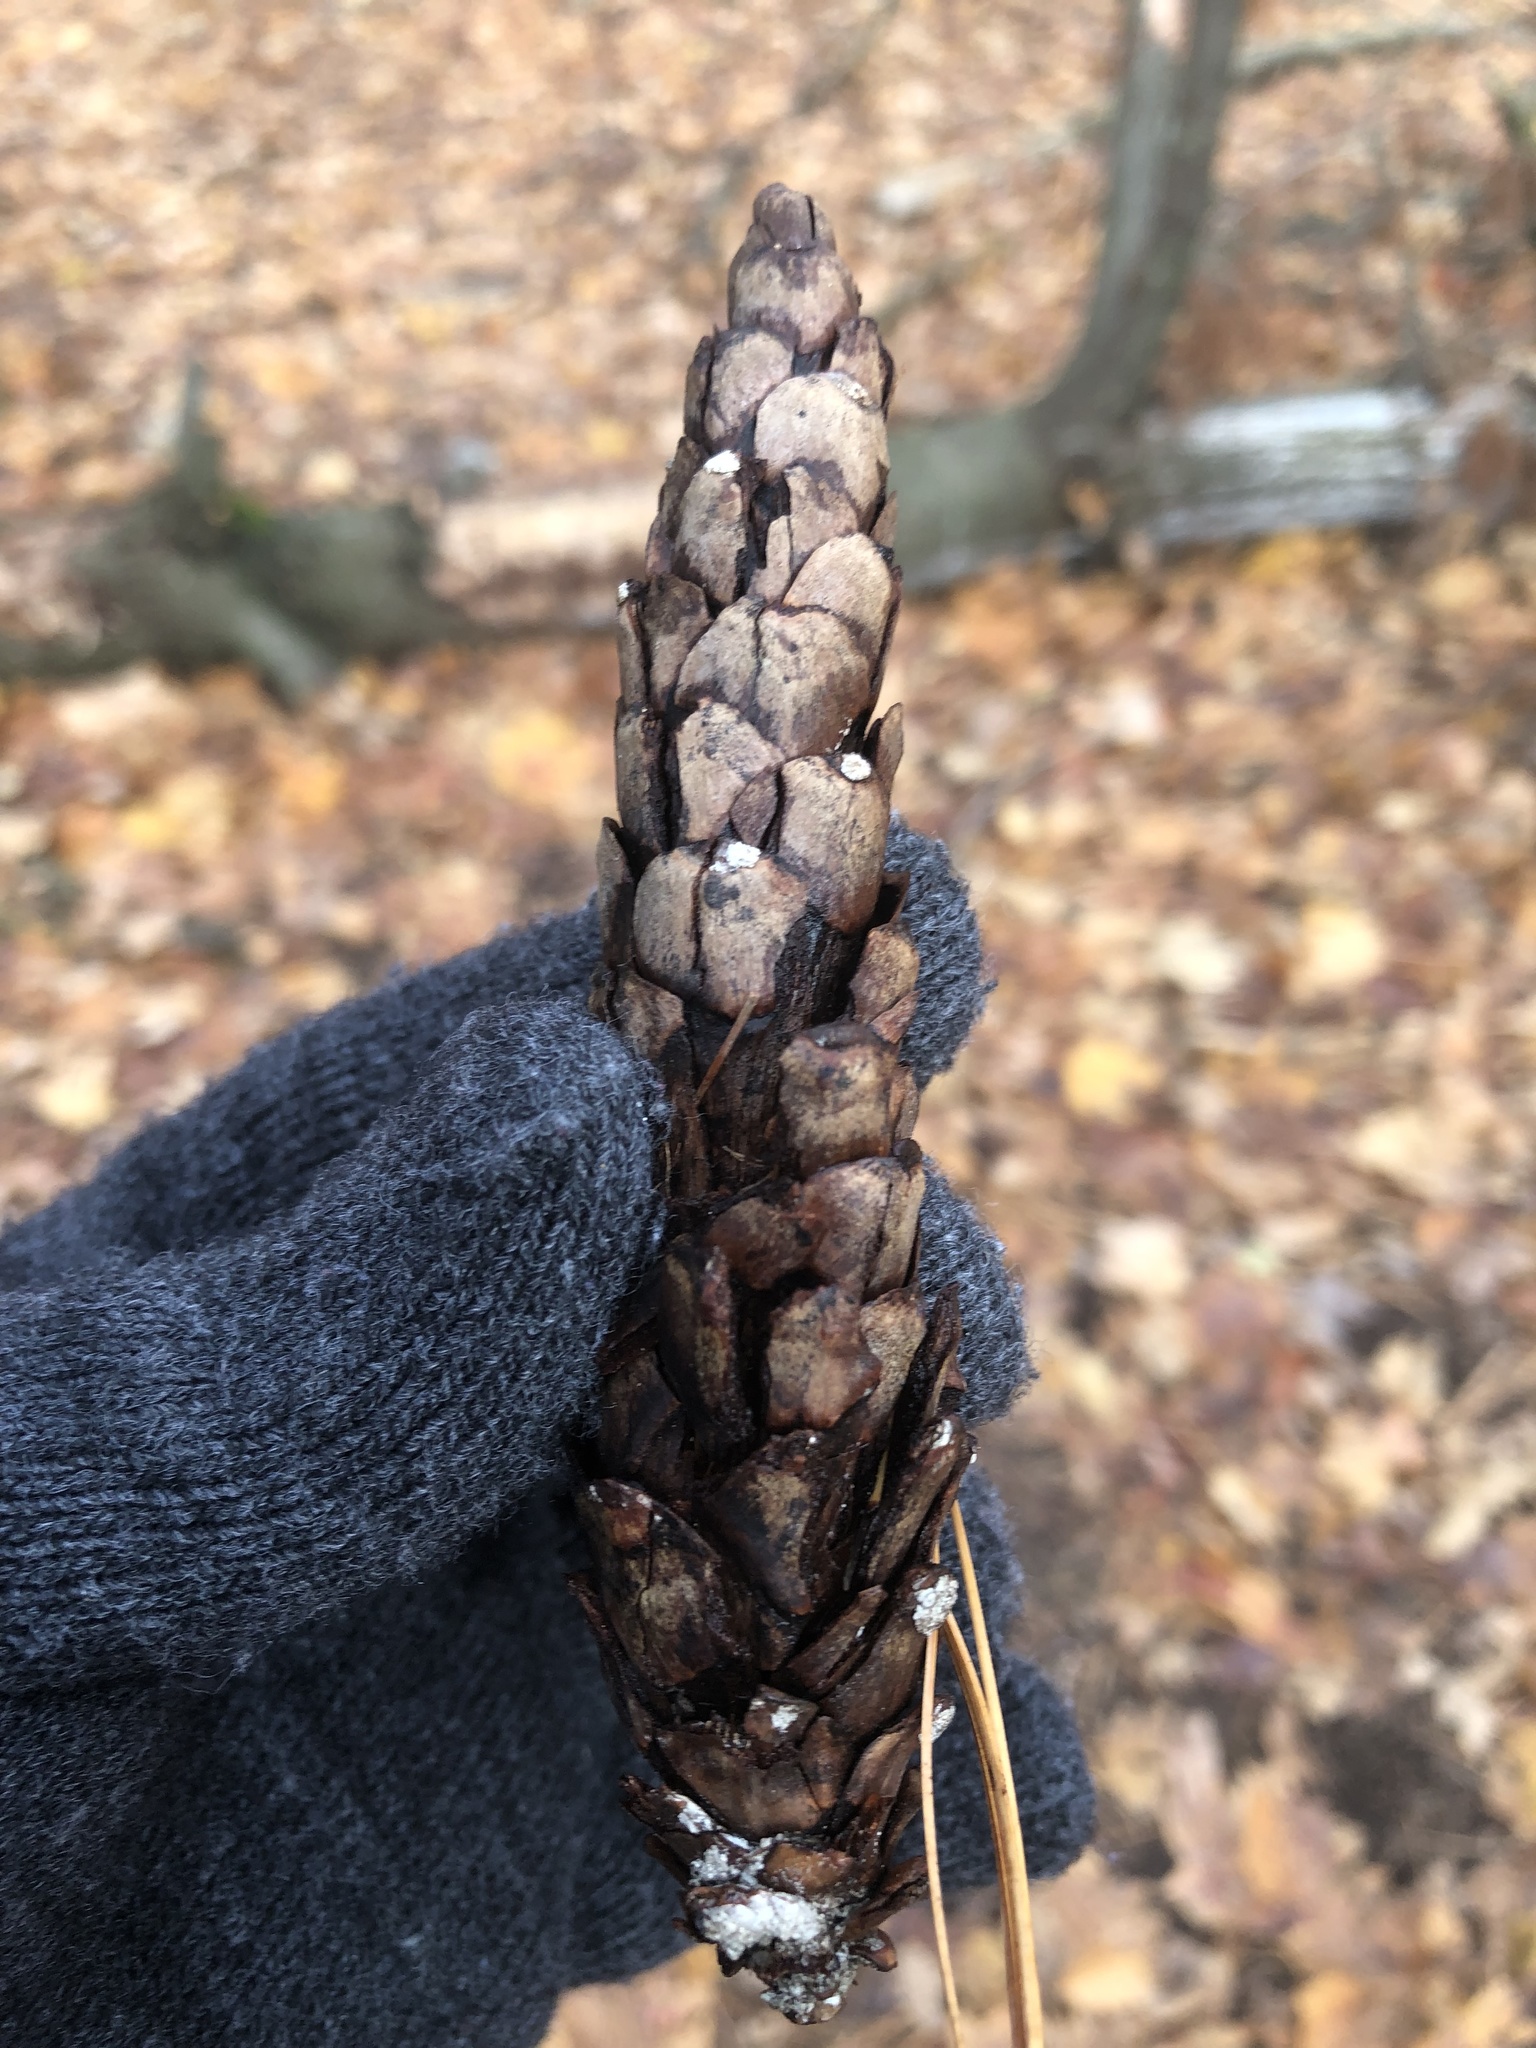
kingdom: Plantae
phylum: Tracheophyta
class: Pinopsida
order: Pinales
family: Pinaceae
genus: Pinus
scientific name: Pinus strobus
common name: Weymouth pine
